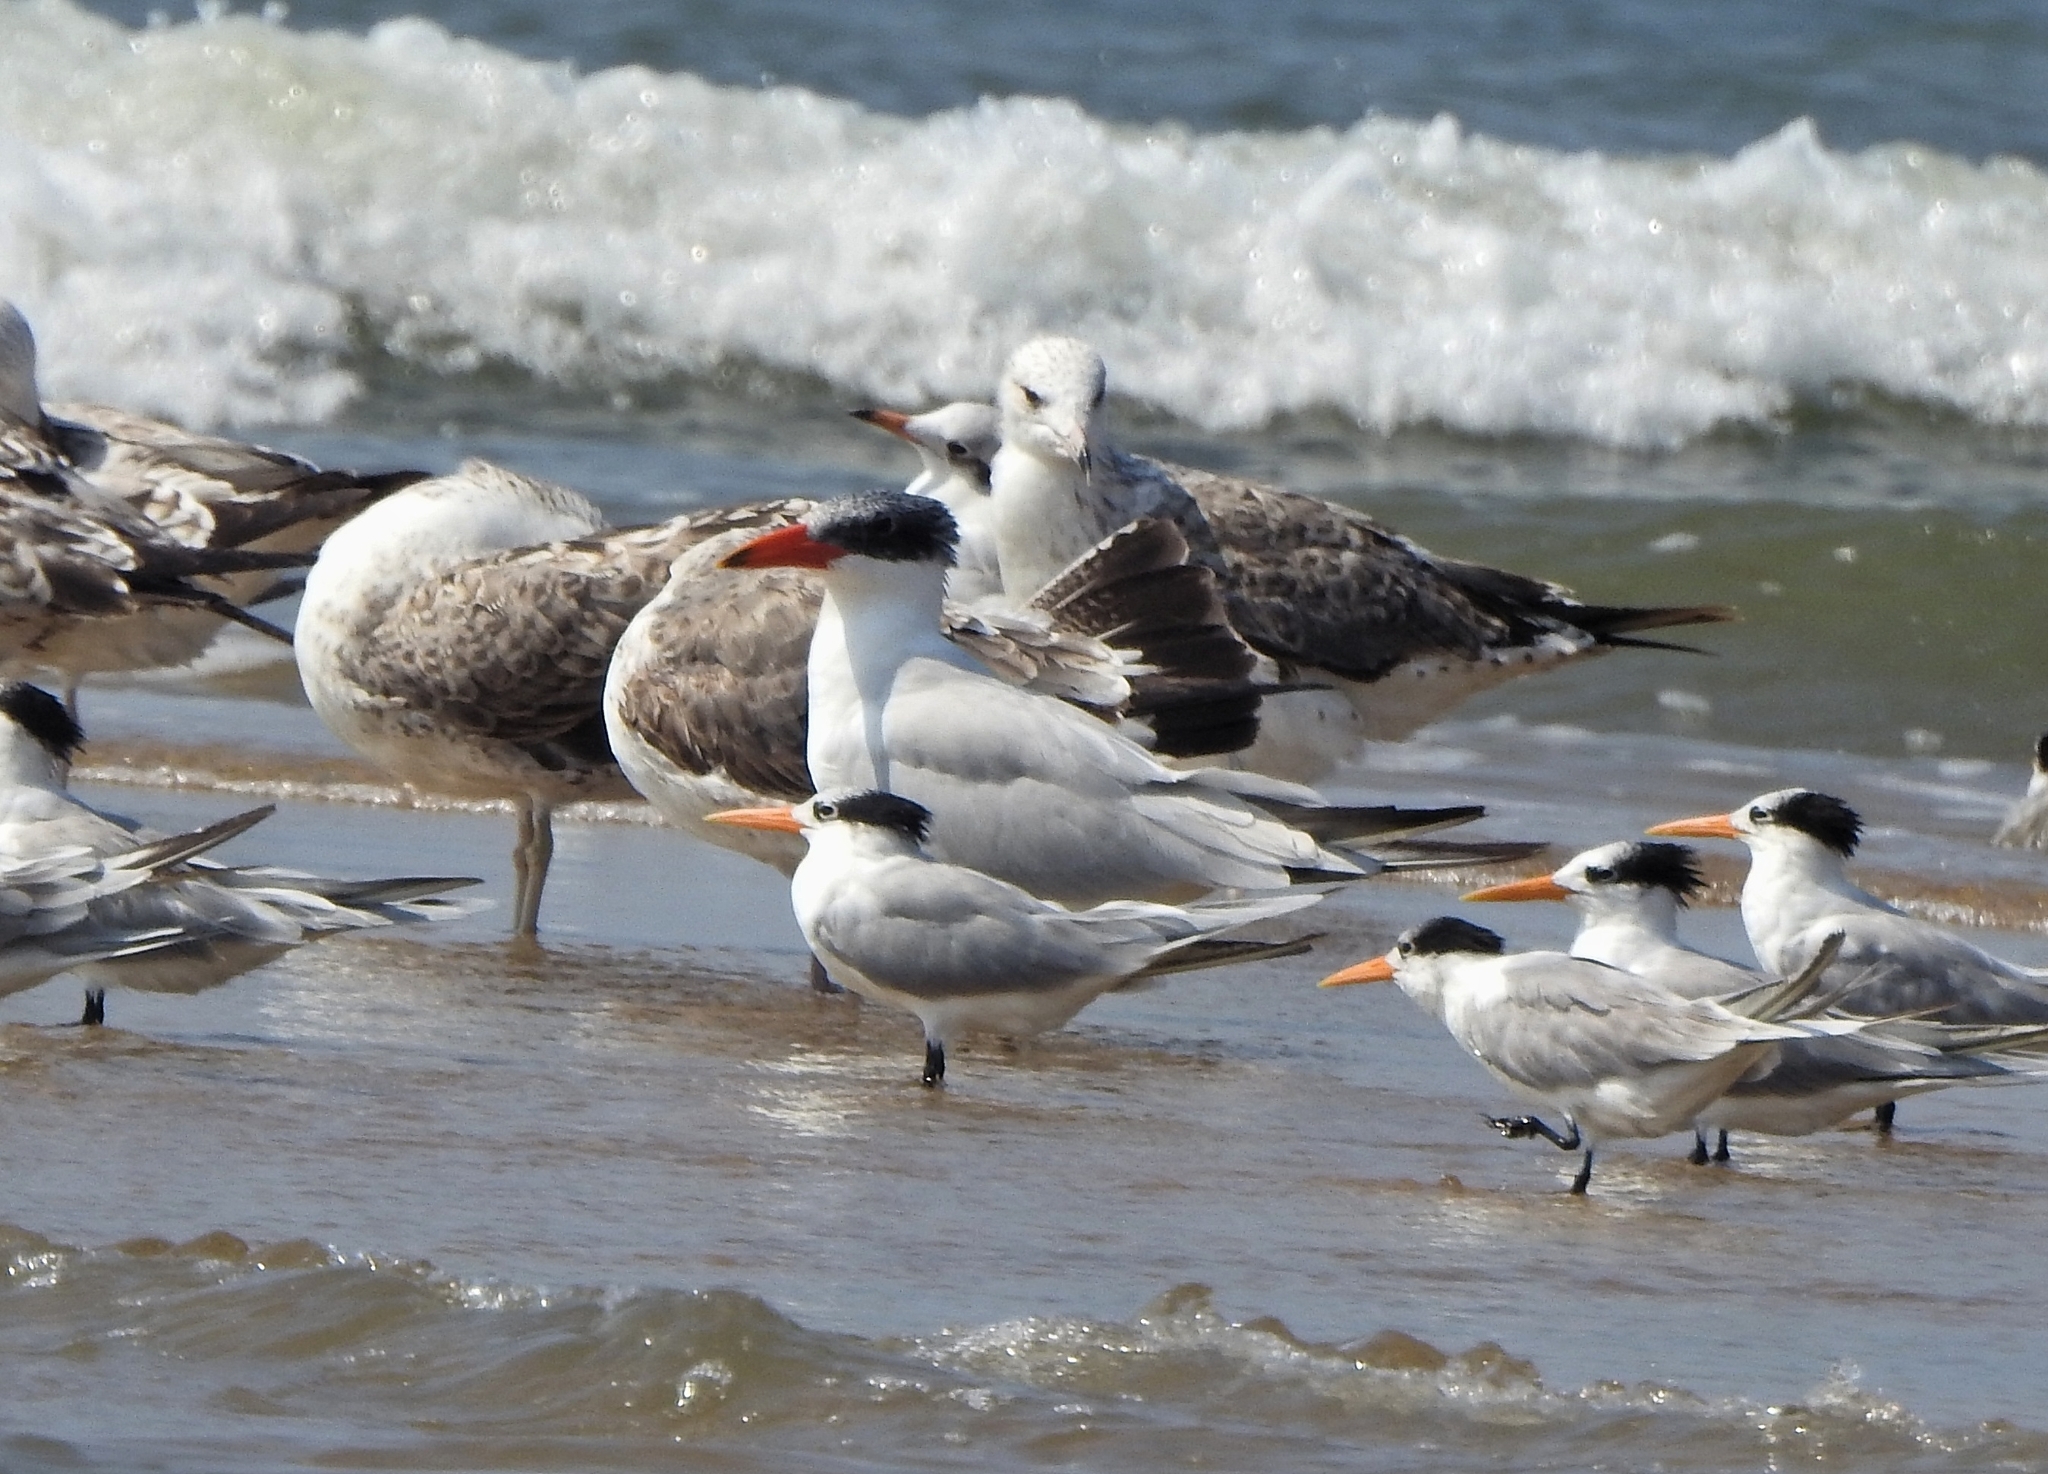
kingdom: Animalia
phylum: Chordata
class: Aves
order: Charadriiformes
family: Laridae
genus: Hydroprogne
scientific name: Hydroprogne caspia
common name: Caspian tern
